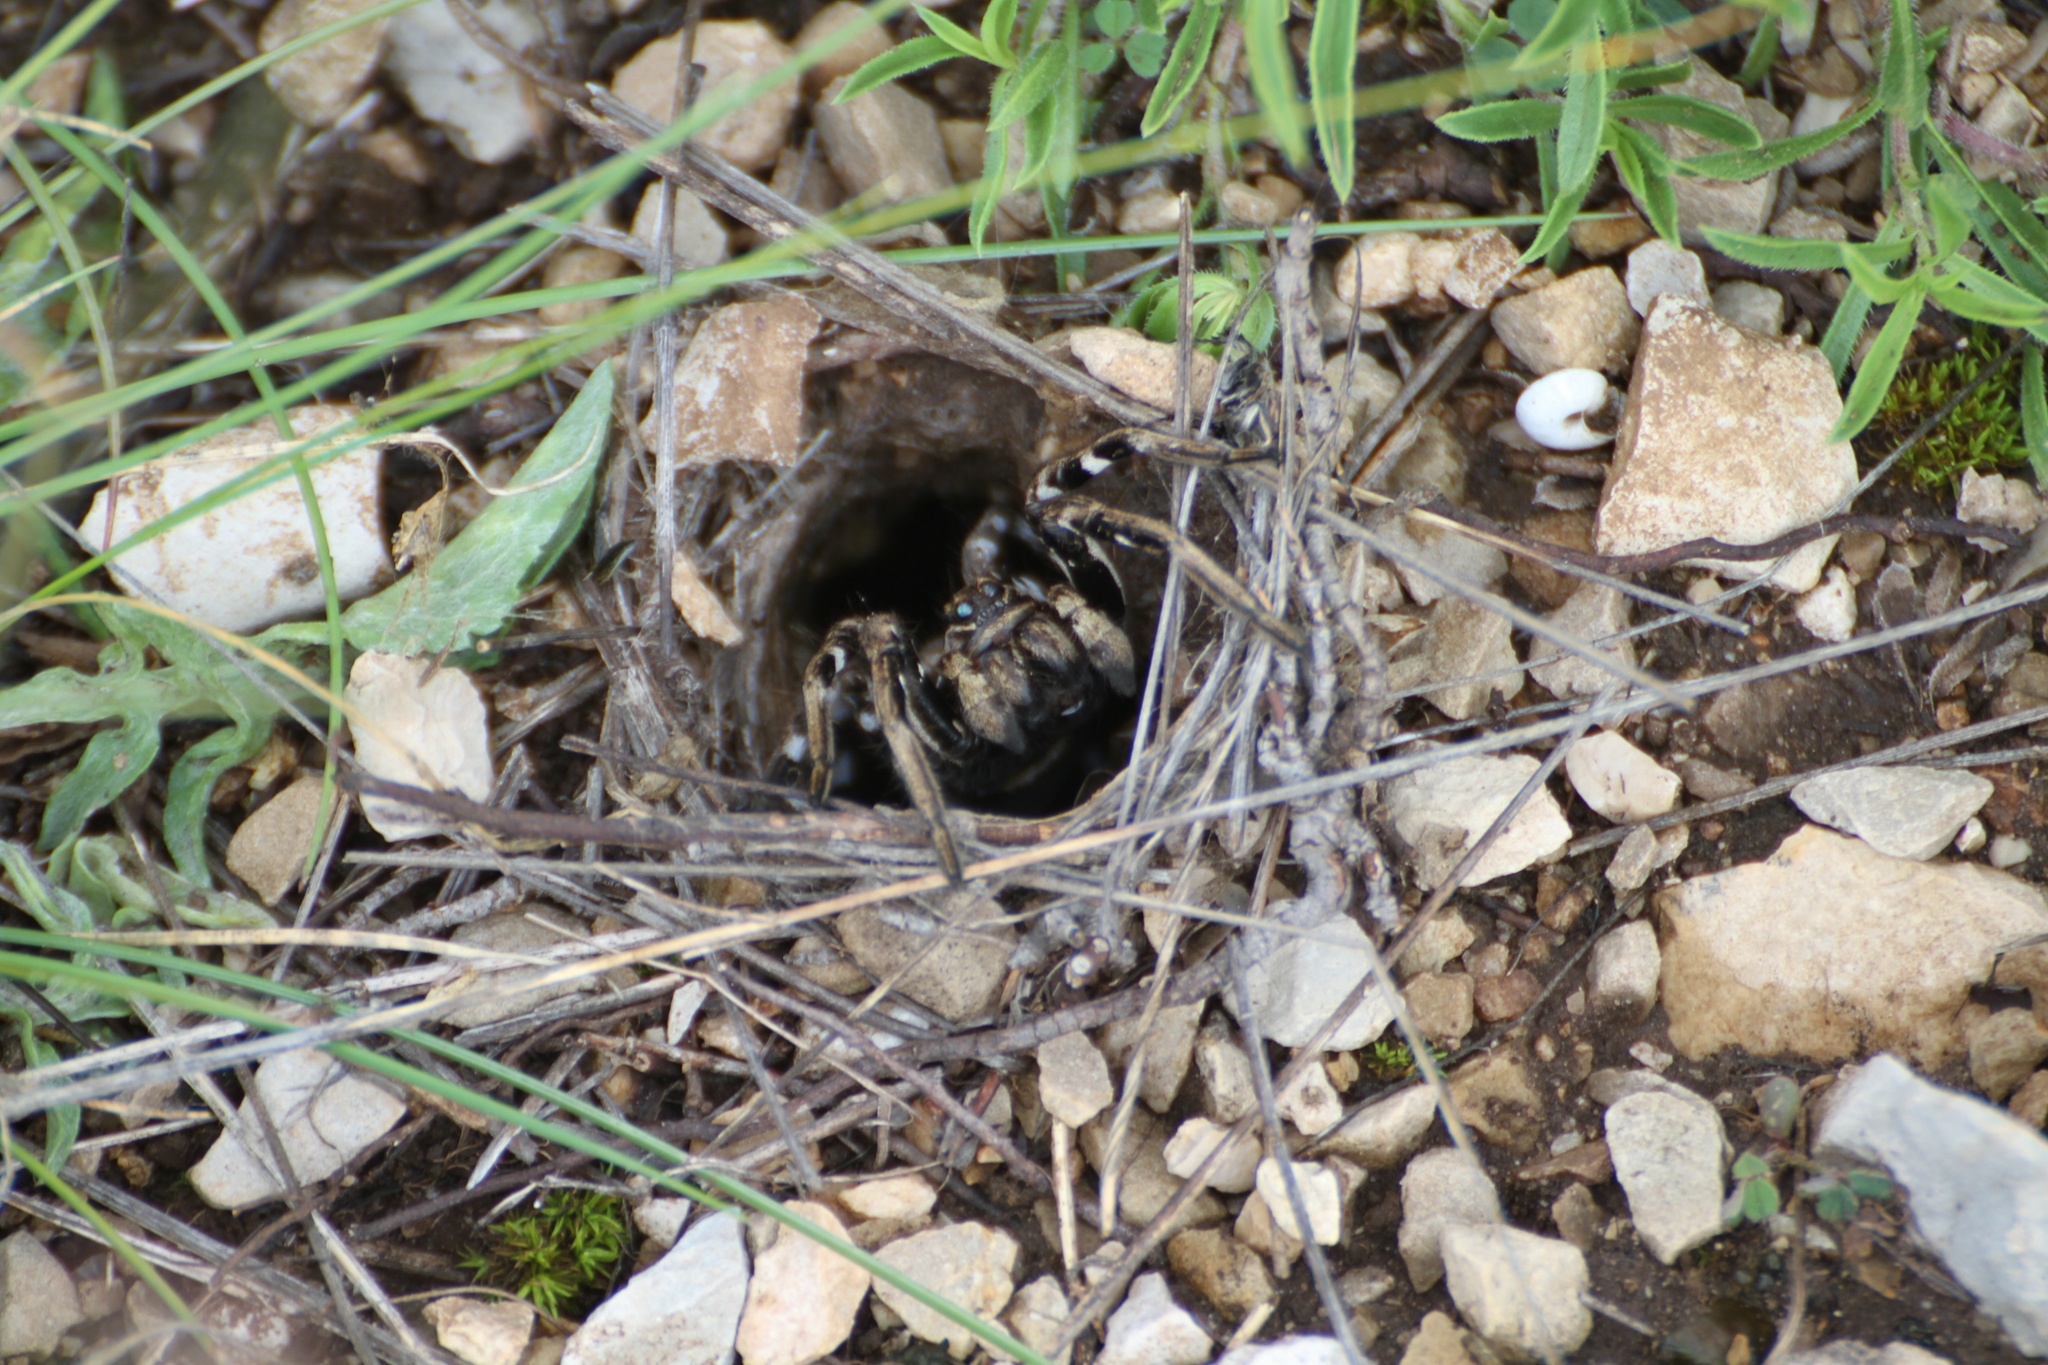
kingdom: Animalia
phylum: Arthropoda
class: Arachnida
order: Araneae
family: Lycosidae
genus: Lycosa
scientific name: Lycosa tarantula
